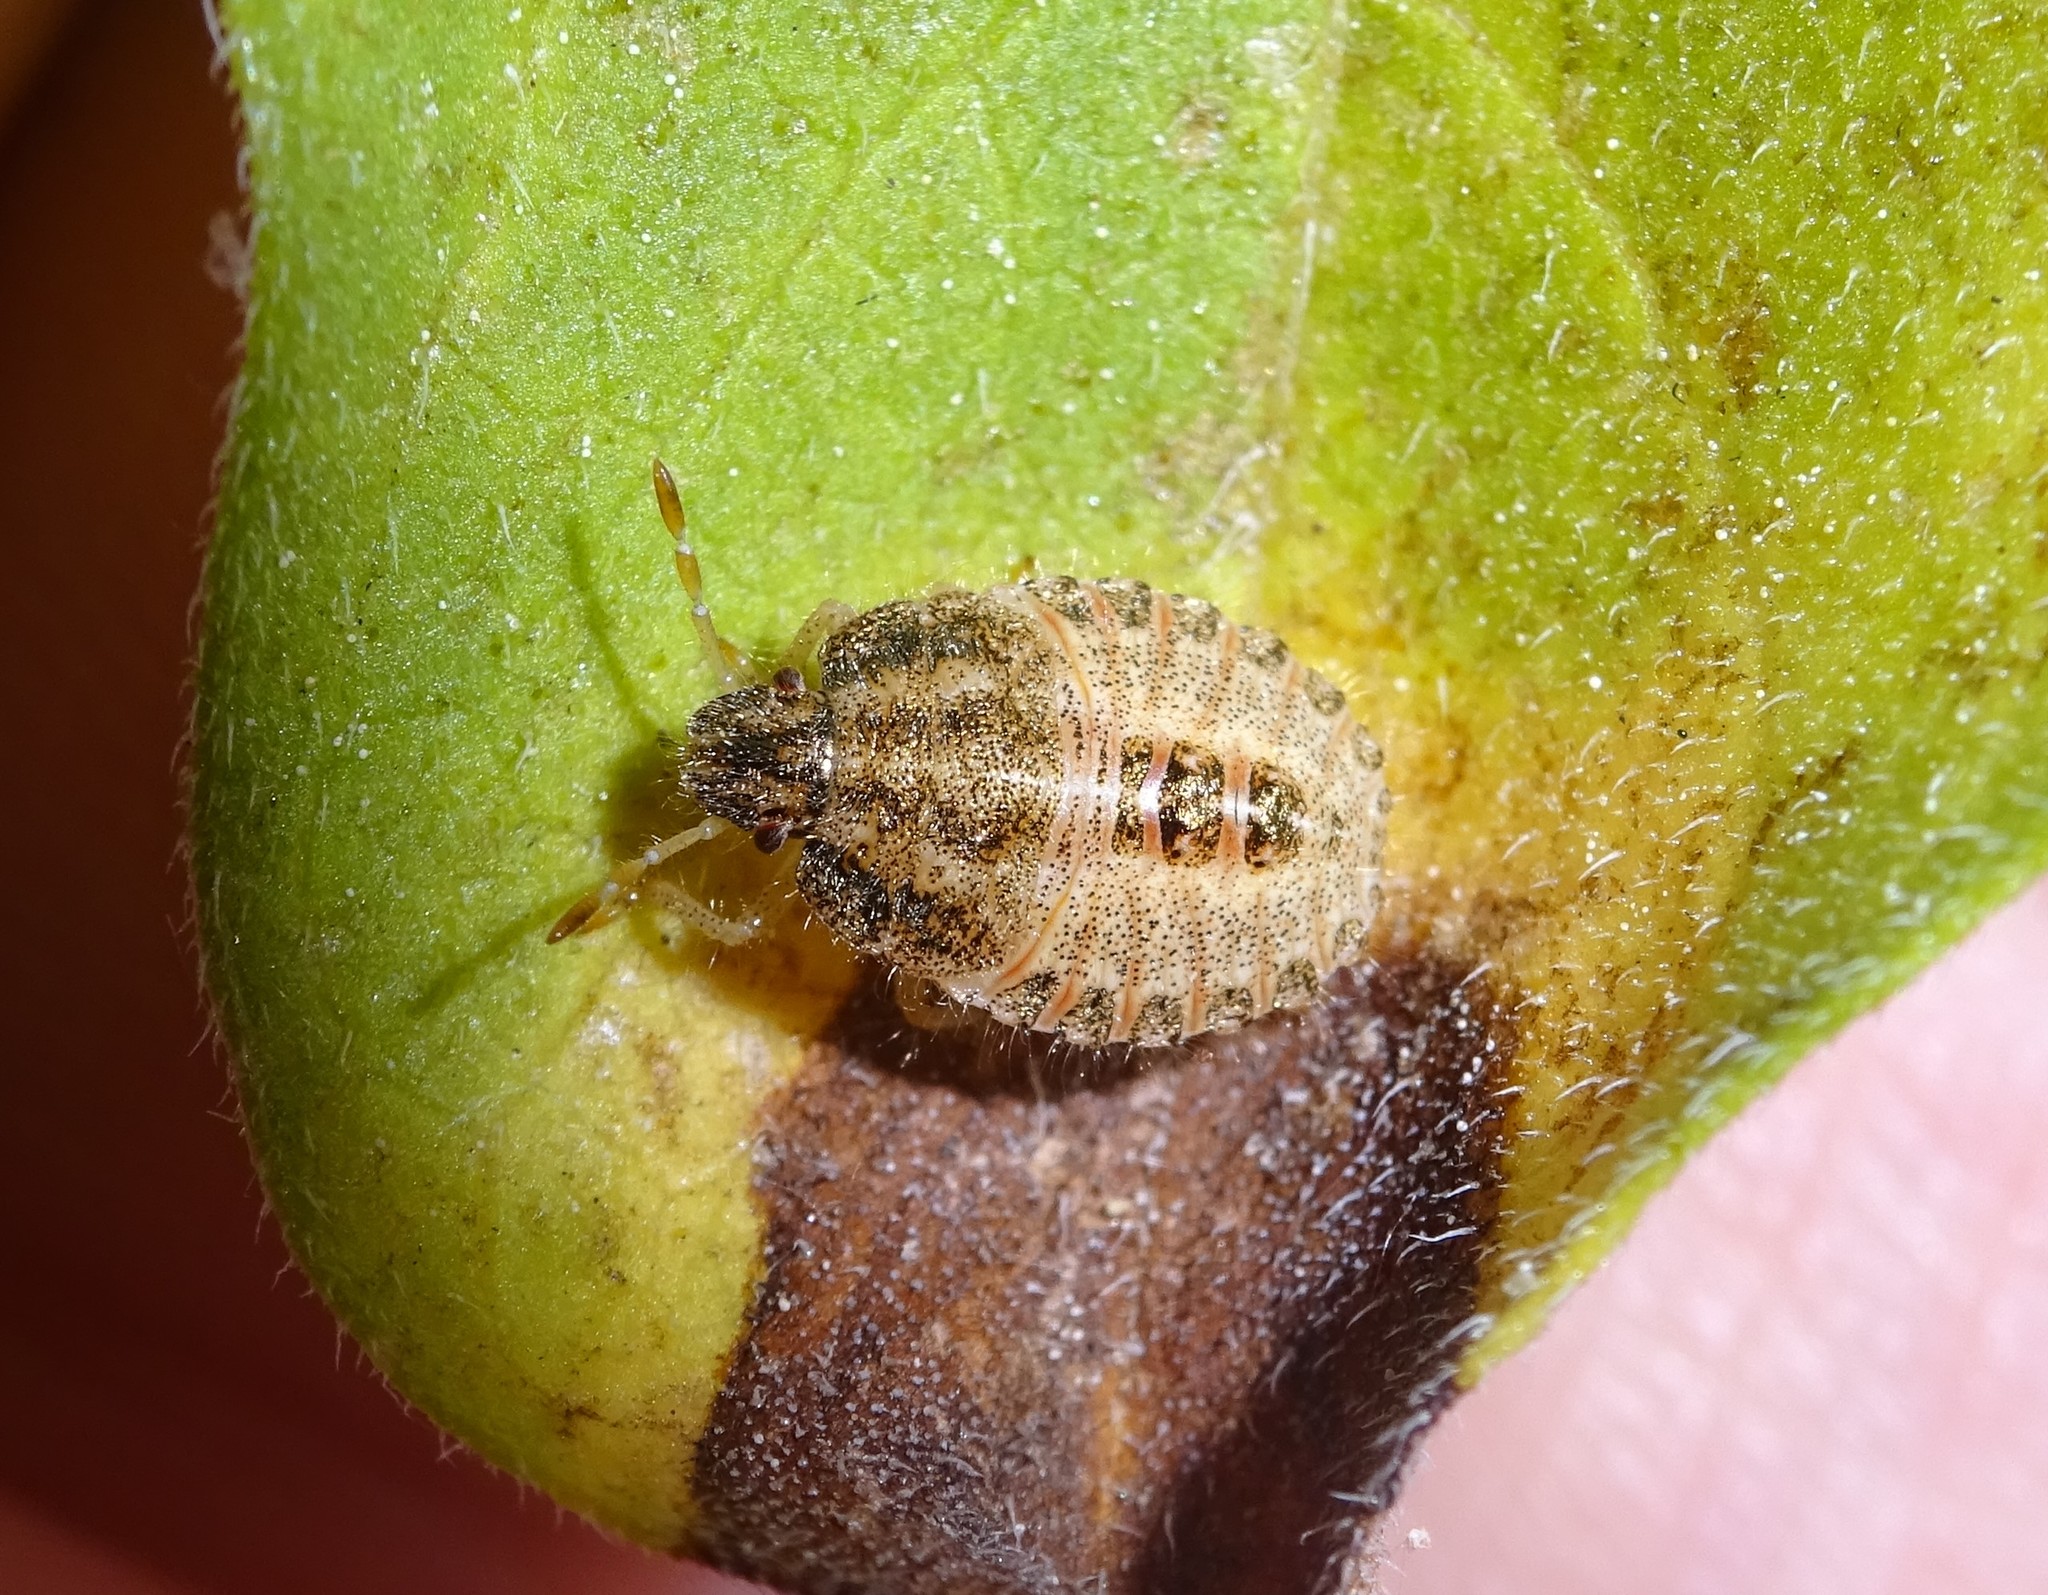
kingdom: Animalia
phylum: Arthropoda
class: Insecta
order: Hemiptera
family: Pentatomidae
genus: Dolycoris
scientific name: Dolycoris baccarum
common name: Sloe bug
